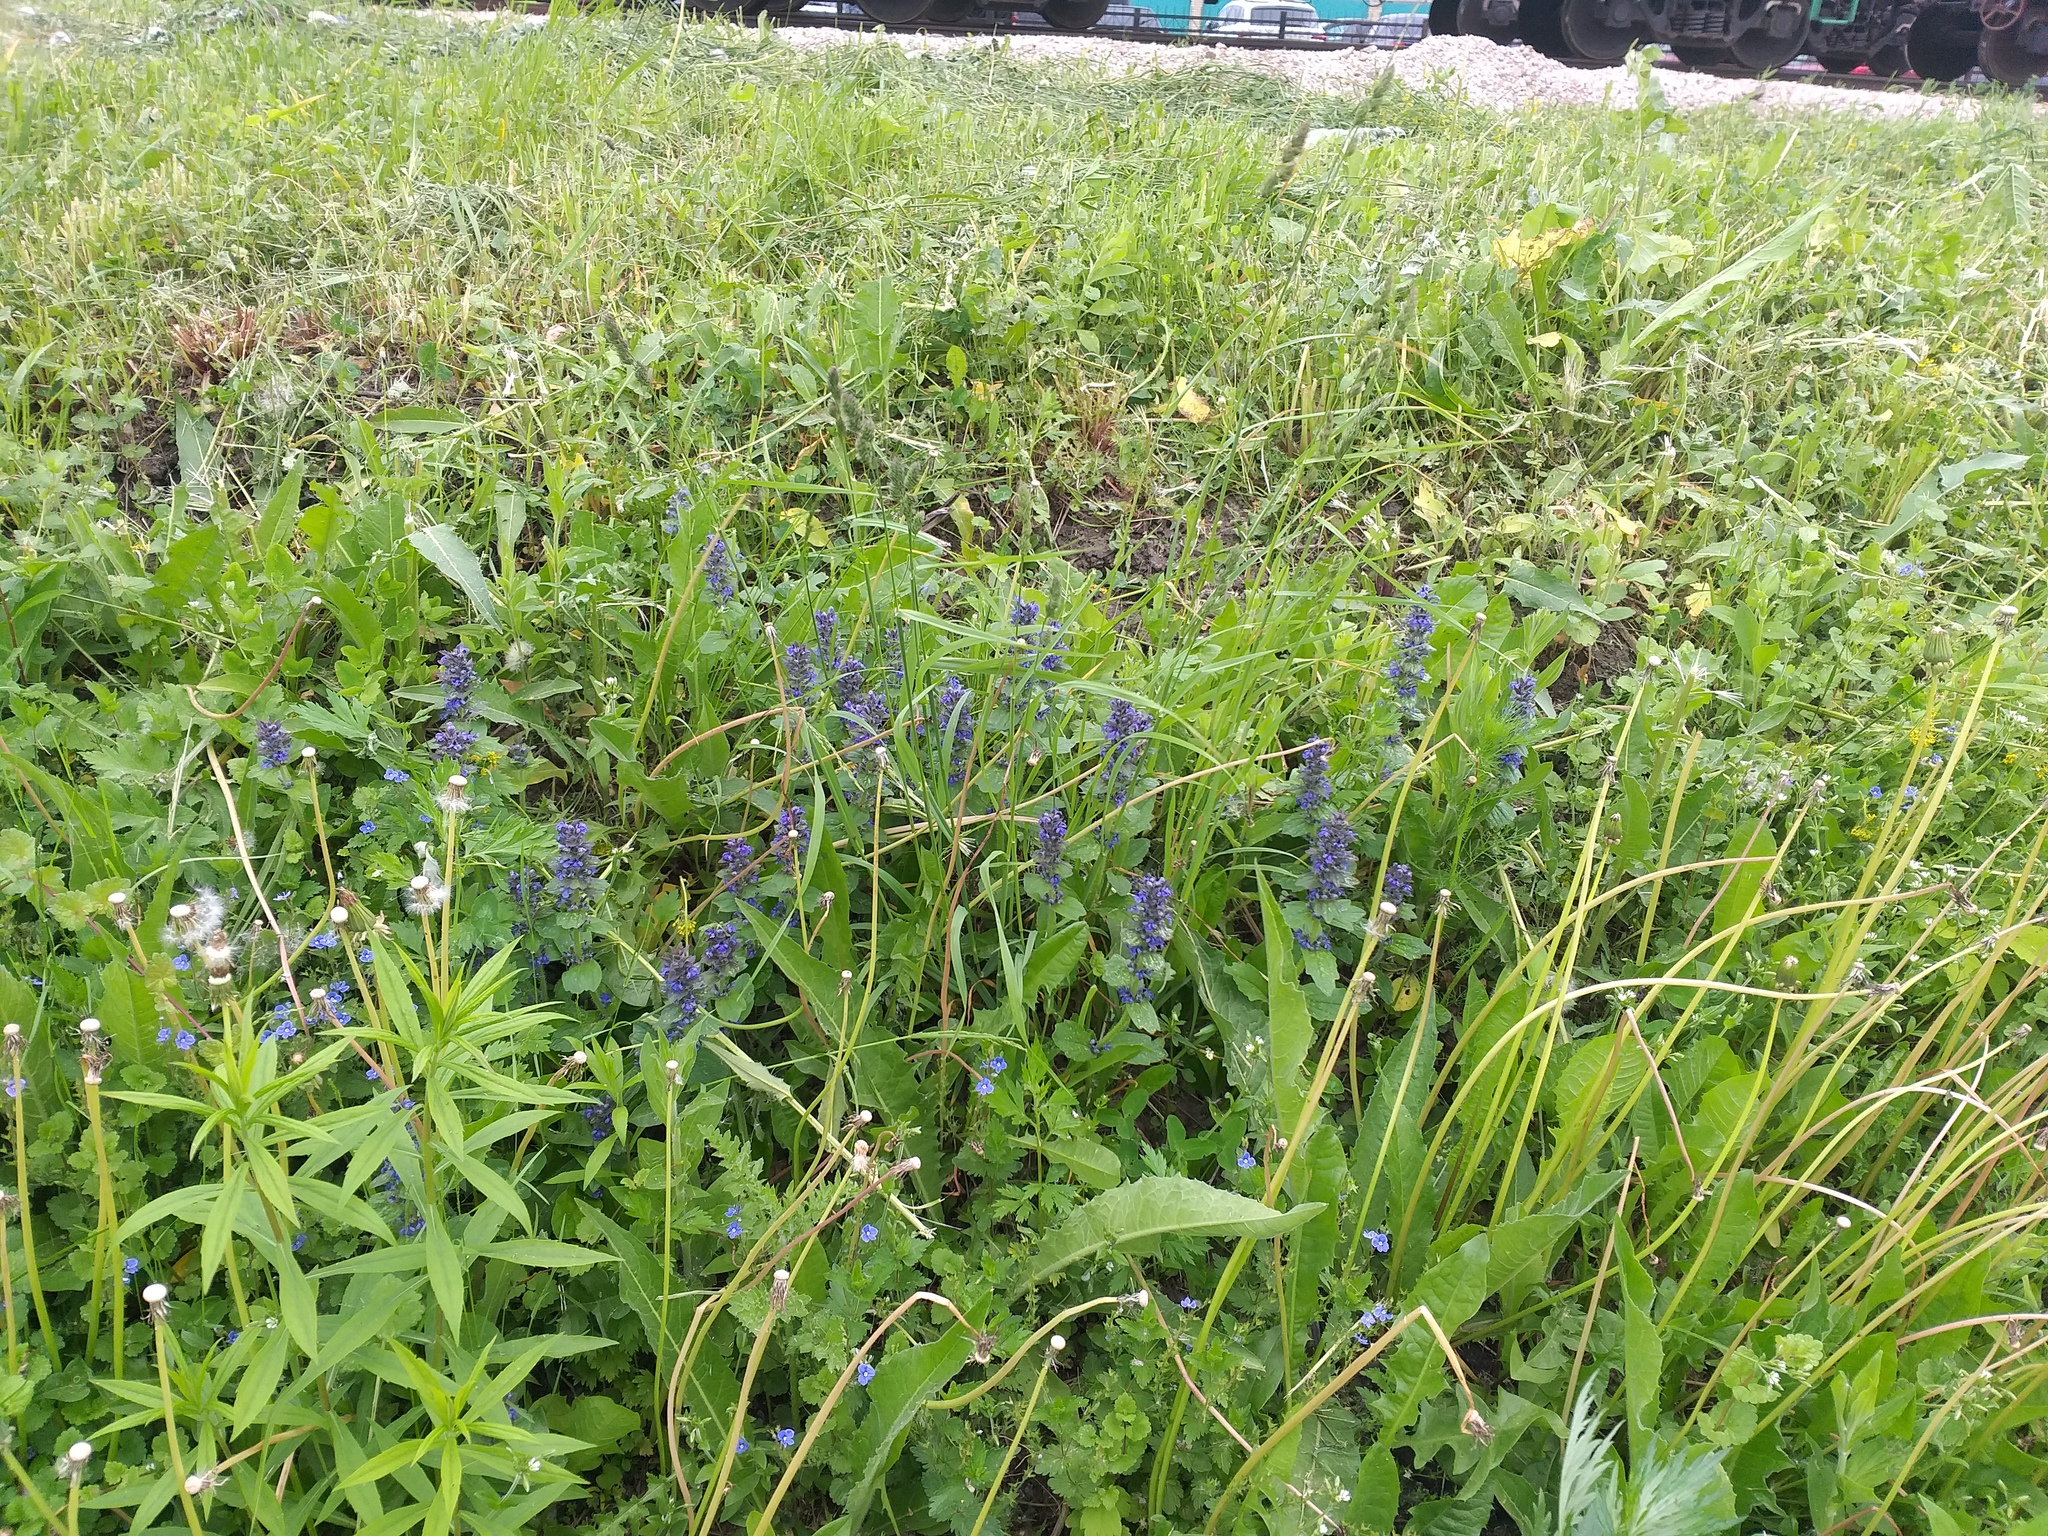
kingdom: Plantae
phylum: Tracheophyta
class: Magnoliopsida
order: Lamiales
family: Lamiaceae
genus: Ajuga
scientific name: Ajuga genevensis
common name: Blue bugle
